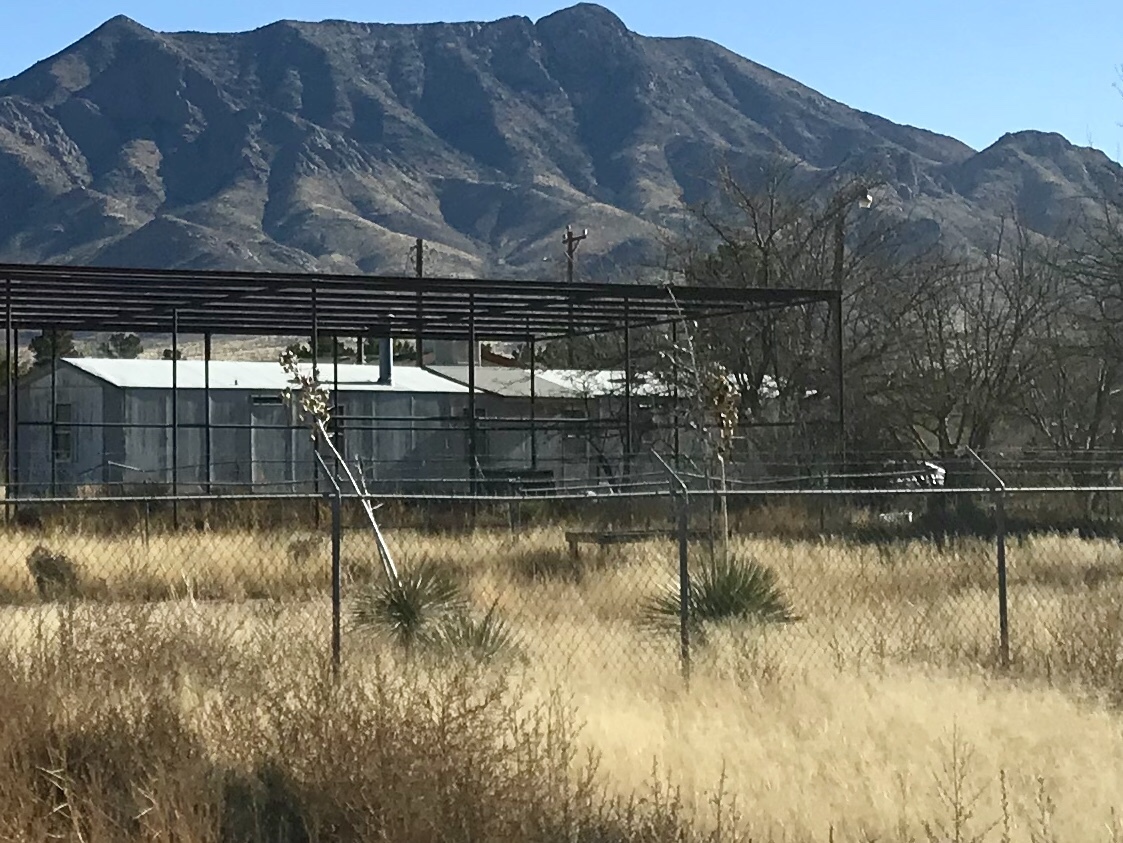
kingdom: Plantae
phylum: Tracheophyta
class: Liliopsida
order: Asparagales
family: Asparagaceae
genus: Yucca
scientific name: Yucca elata
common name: Palmella
